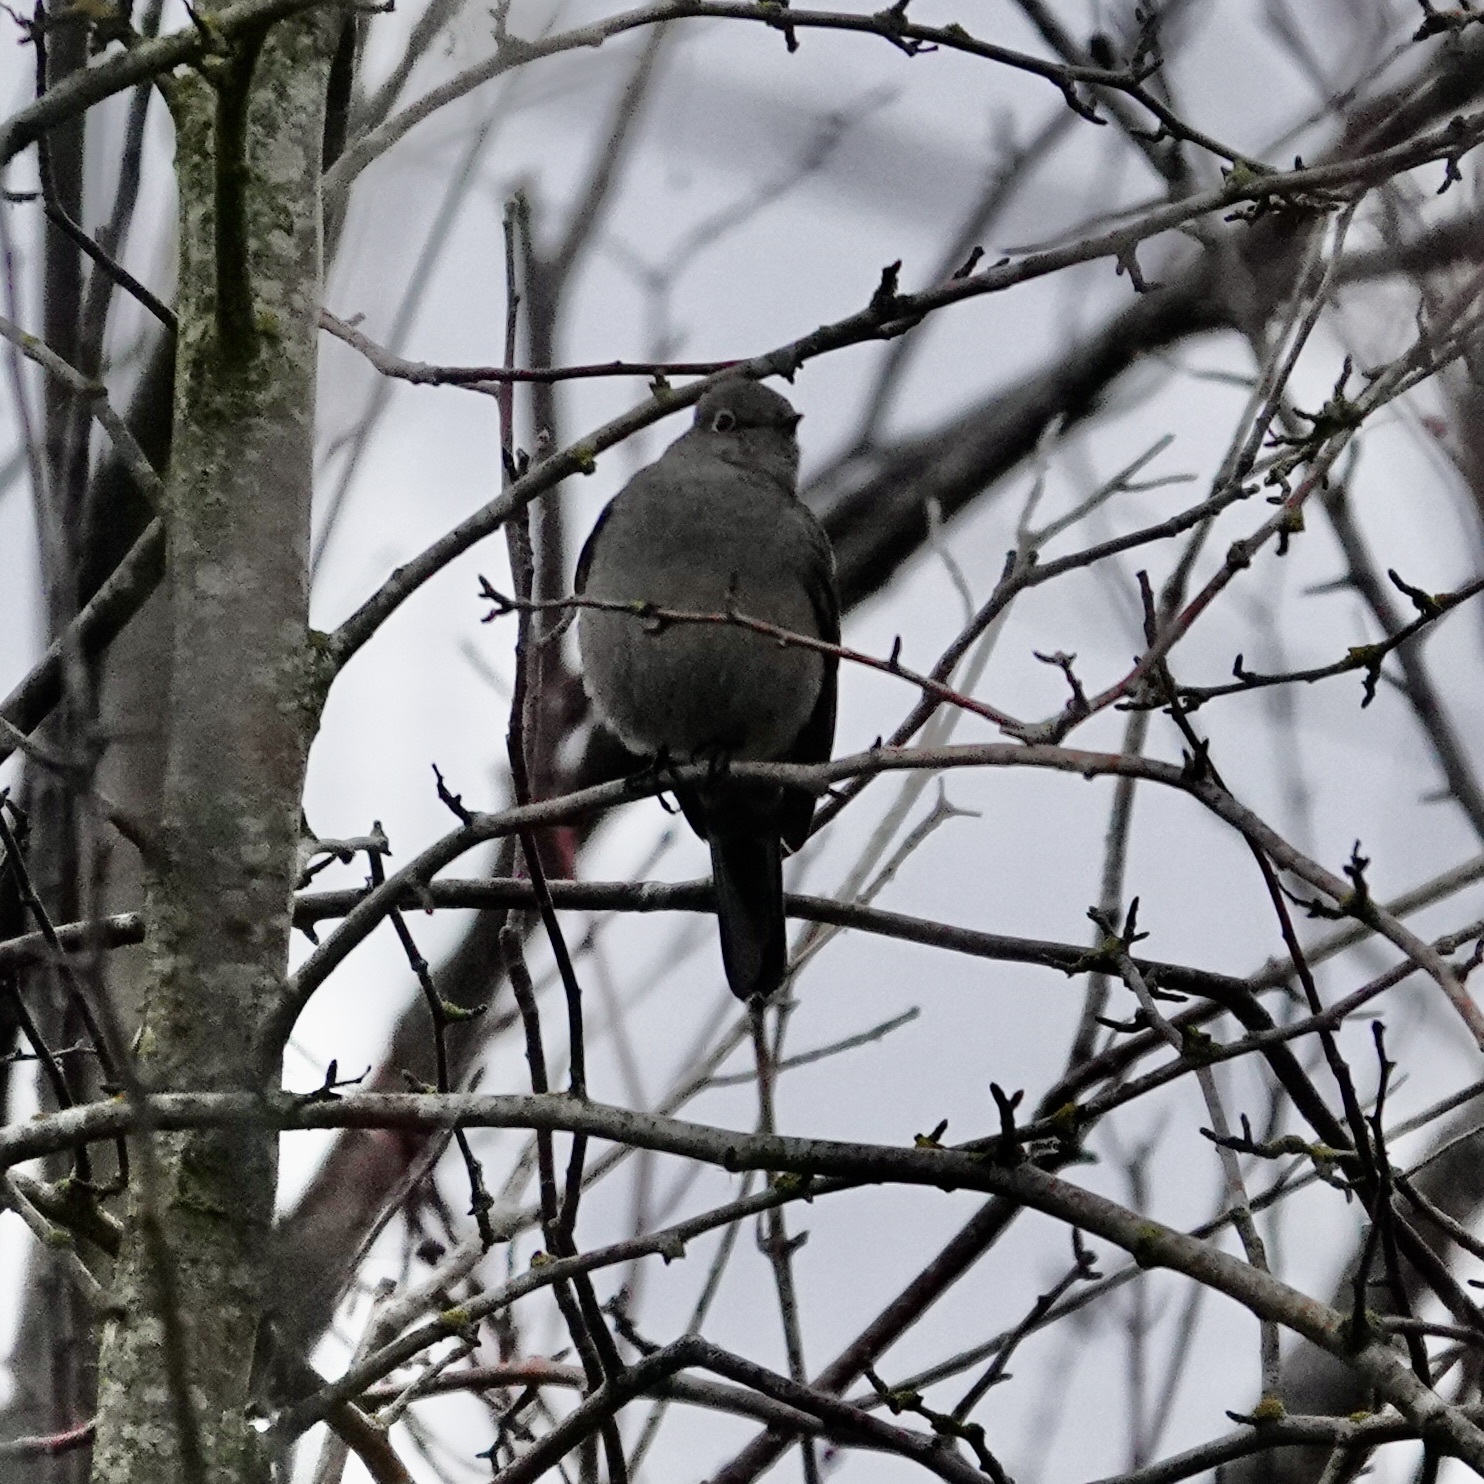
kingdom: Animalia
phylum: Chordata
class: Aves
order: Passeriformes
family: Turdidae
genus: Myadestes
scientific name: Myadestes townsendi
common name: Townsend's solitaire
